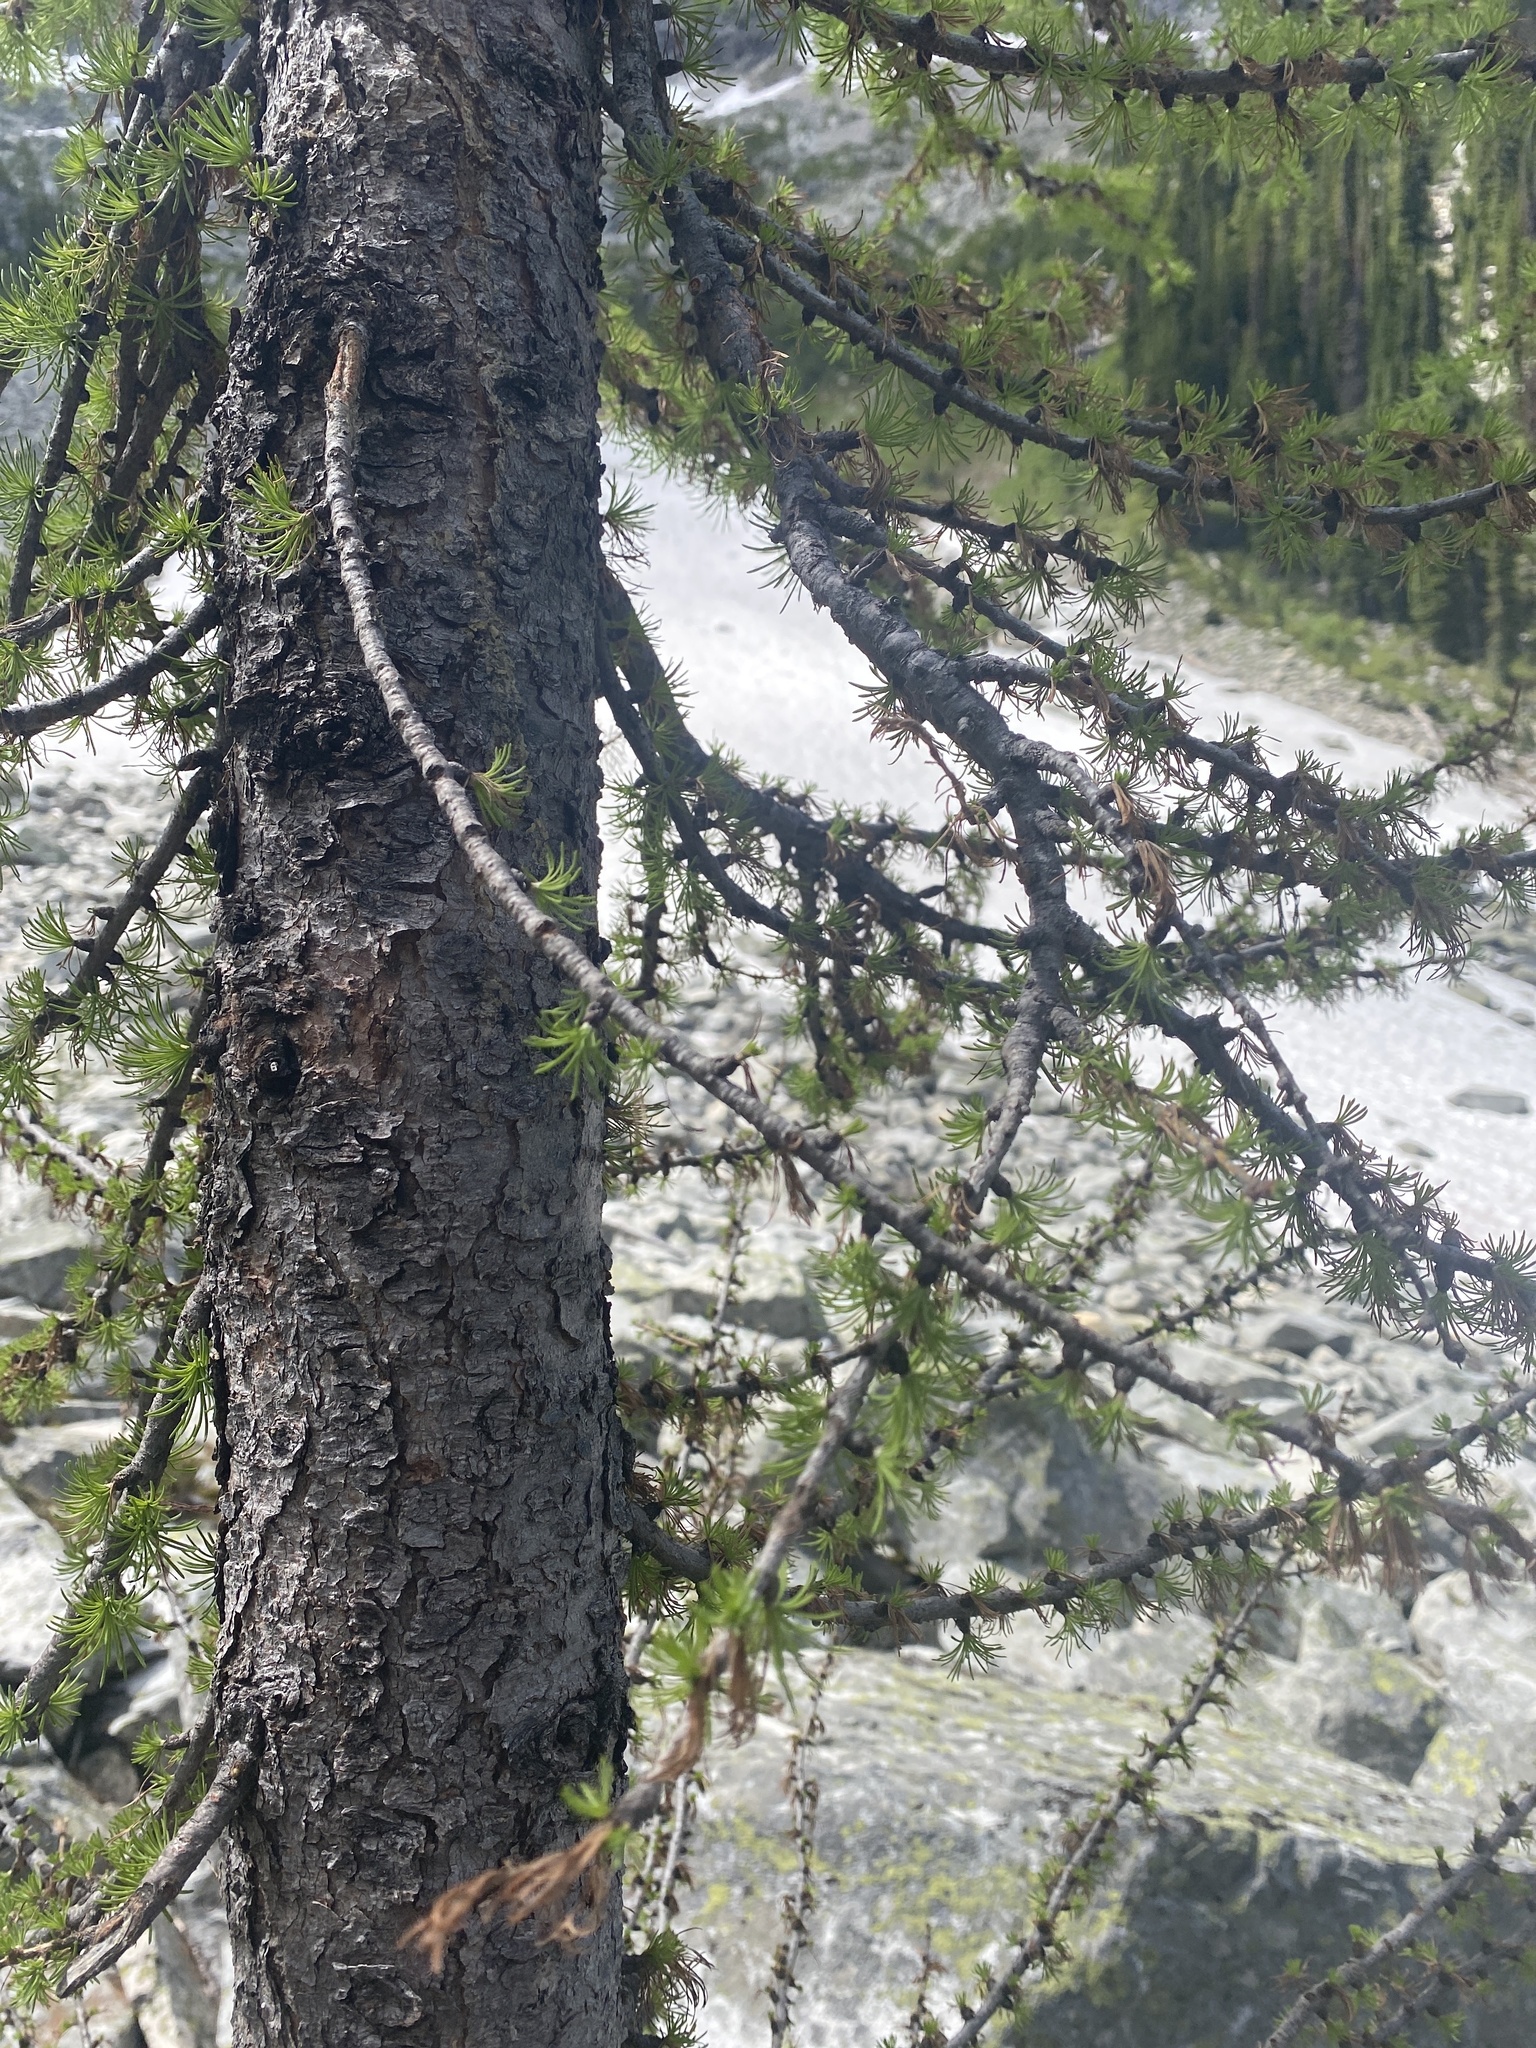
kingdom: Plantae
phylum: Tracheophyta
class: Pinopsida
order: Pinales
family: Pinaceae
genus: Larix
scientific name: Larix lyallii
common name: Alpine larch
